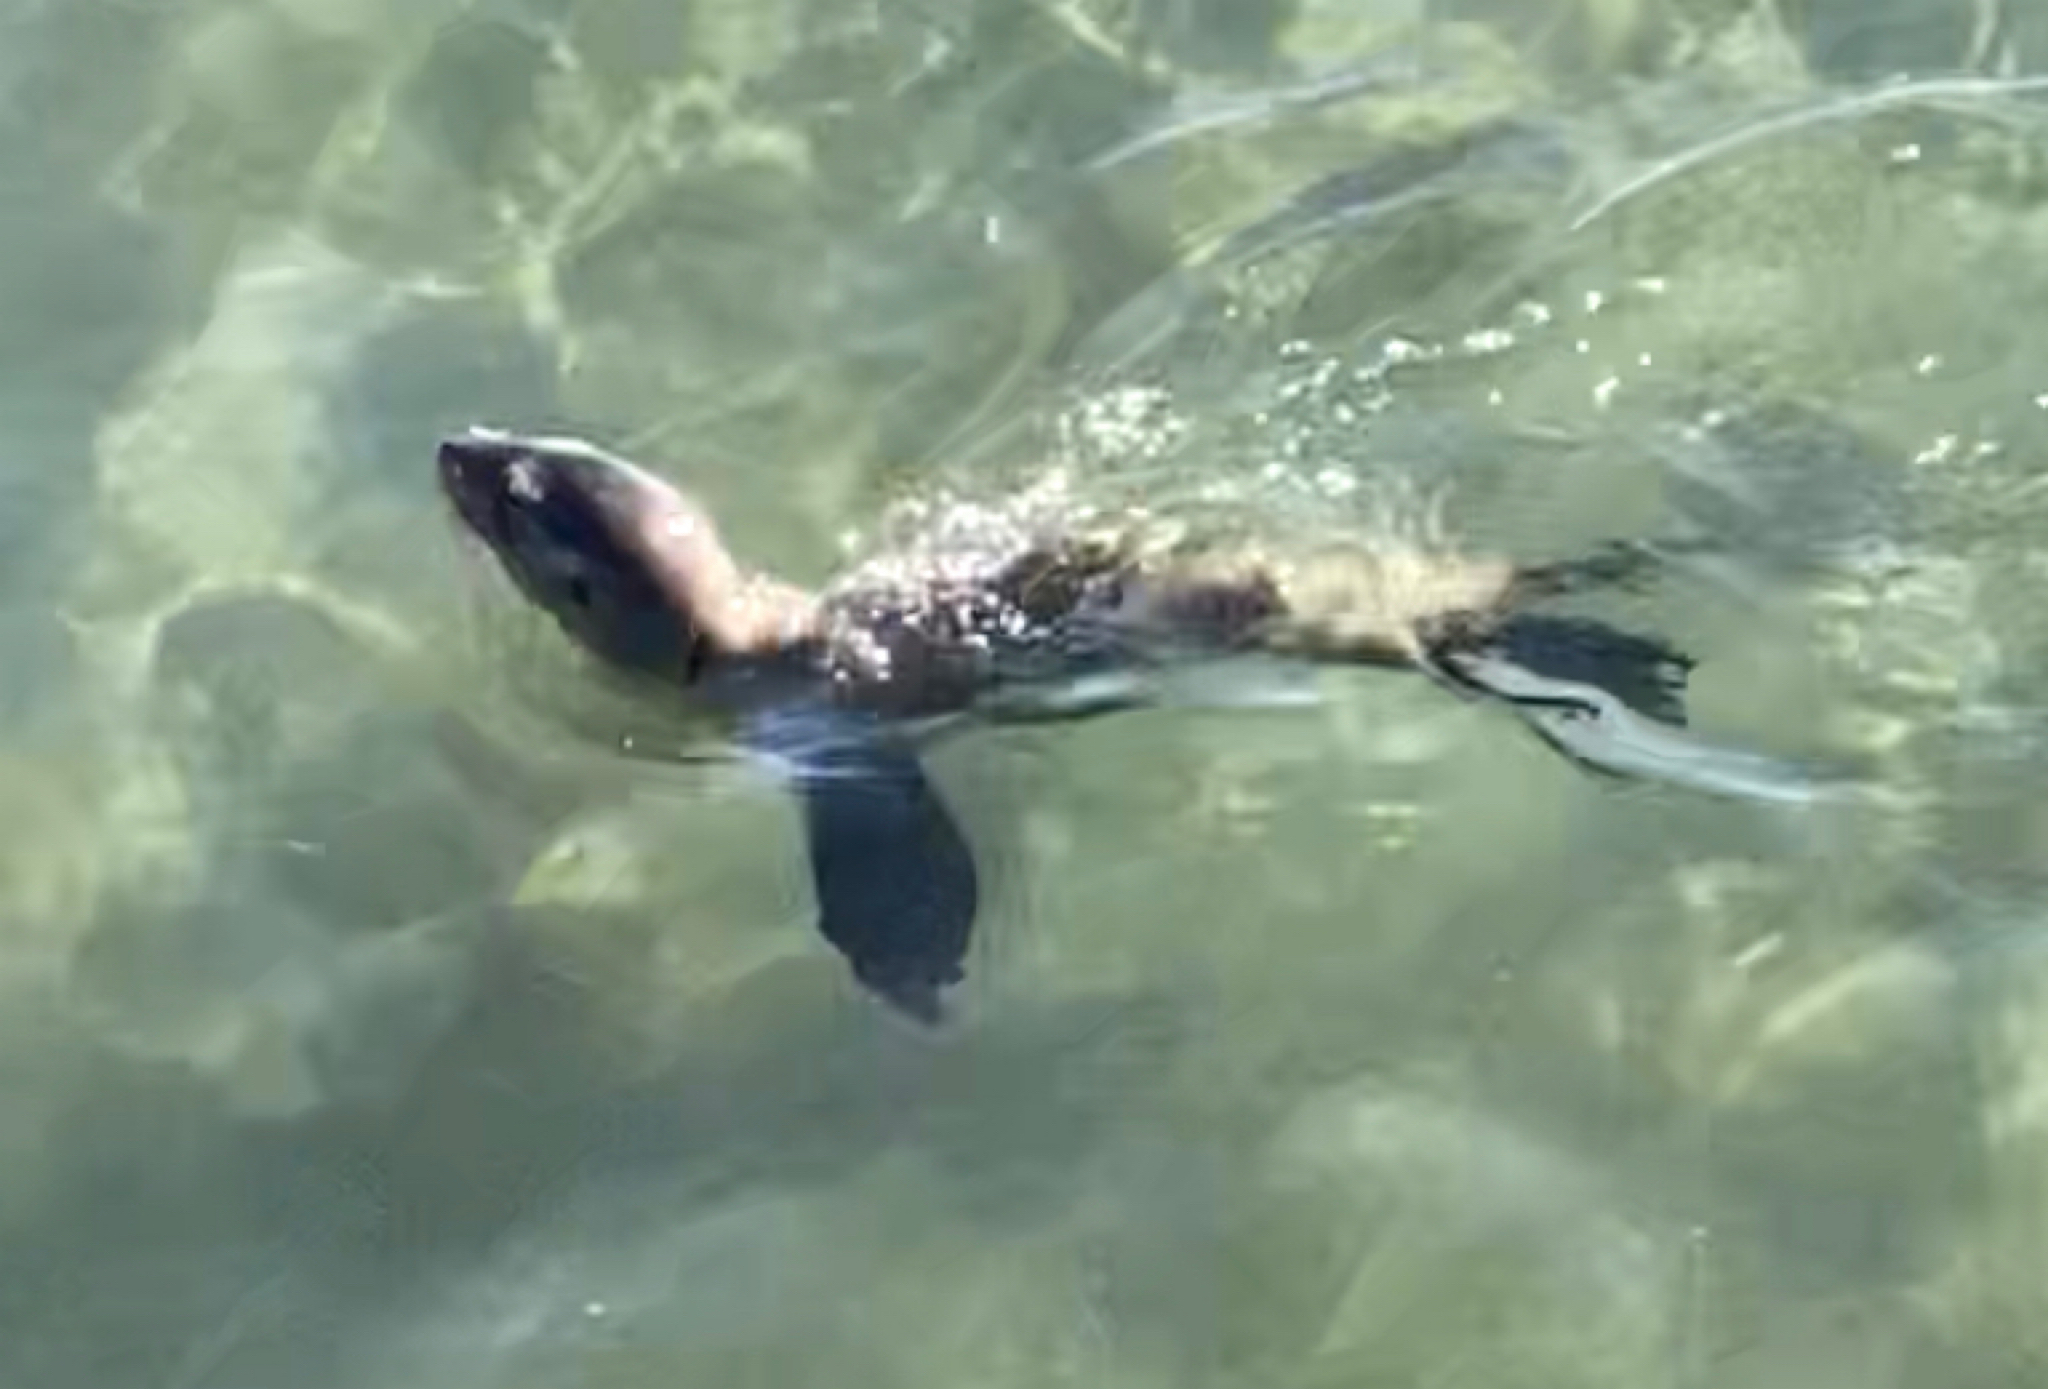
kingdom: Animalia
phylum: Chordata
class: Mammalia
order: Carnivora
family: Otariidae
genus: Zalophus
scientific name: Zalophus californianus
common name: California sea lion
